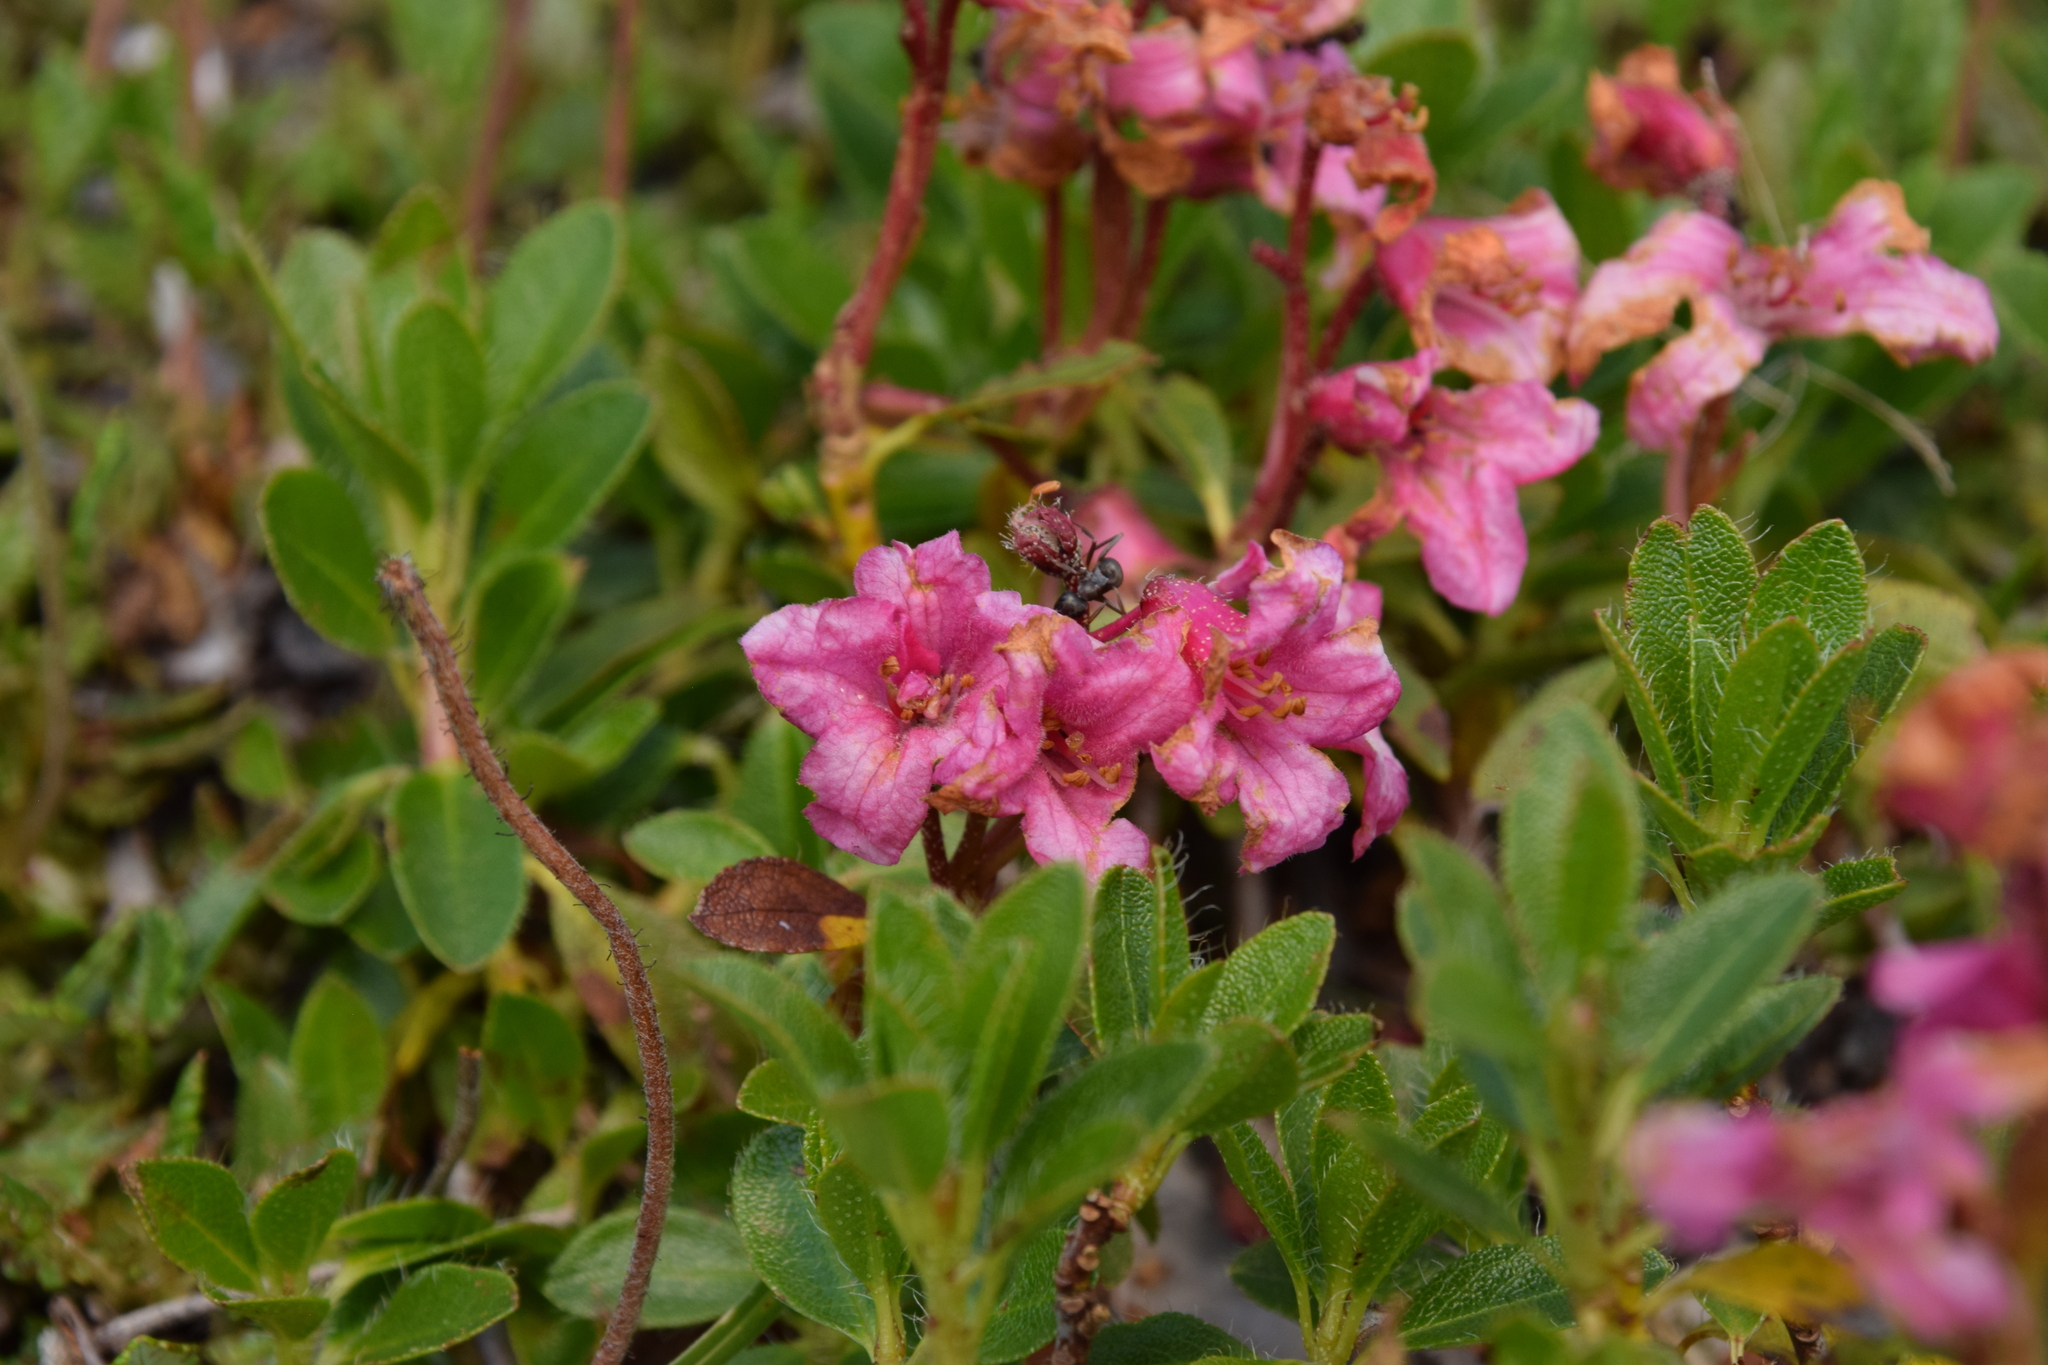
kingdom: Plantae
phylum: Tracheophyta
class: Magnoliopsida
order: Ericales
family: Ericaceae
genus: Rhododendron
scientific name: Rhododendron hirsutum
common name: Hairy alpenrose
